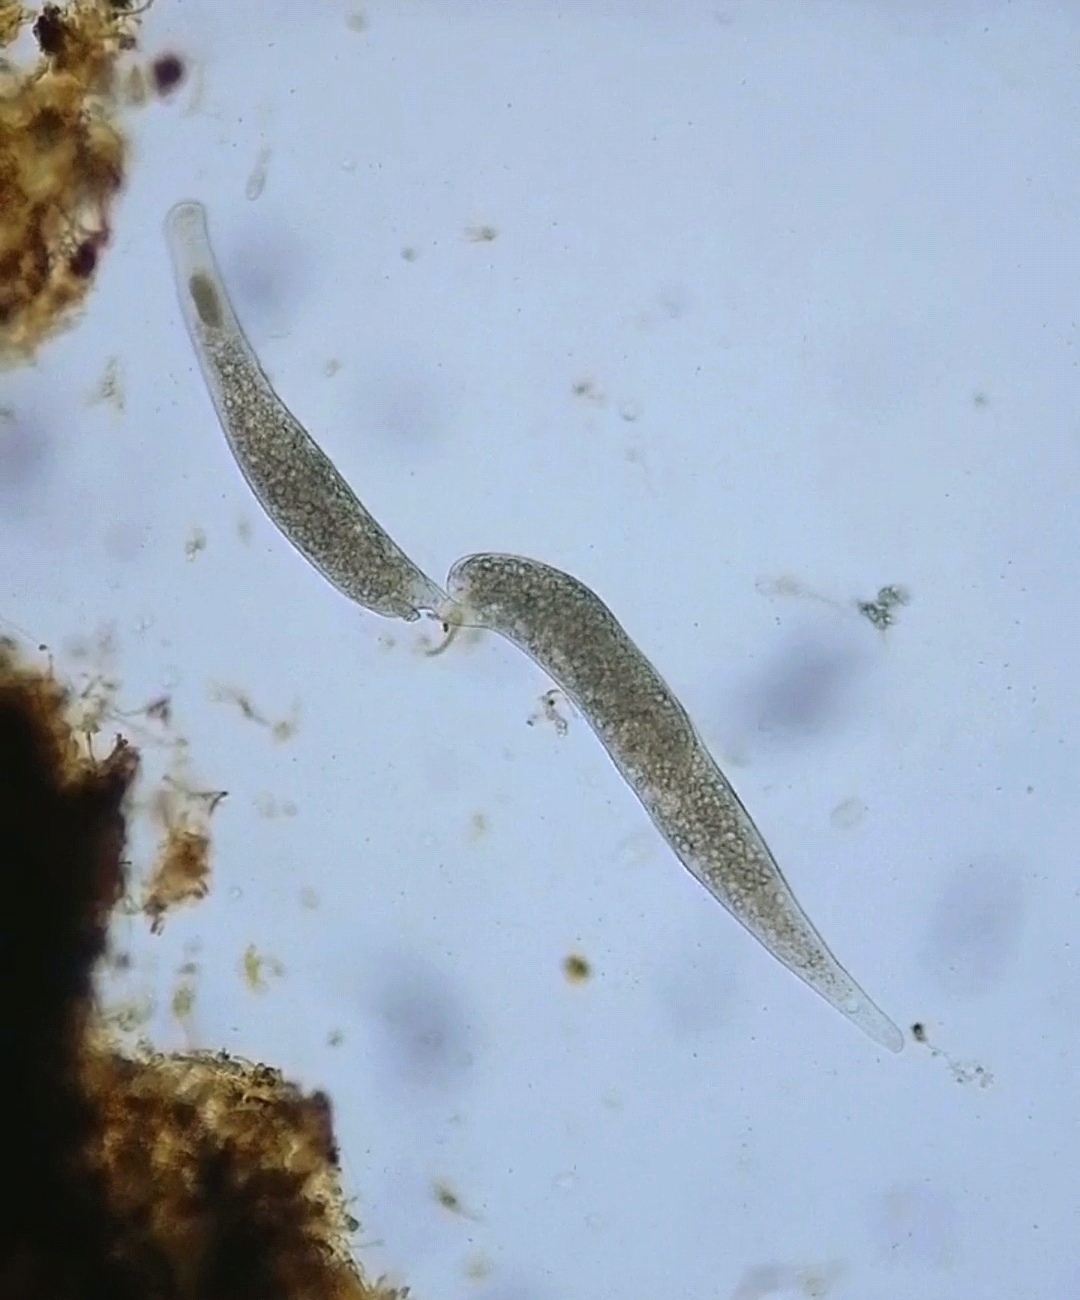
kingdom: Chromista
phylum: Ciliophora
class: Gymnostomatea
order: Spathidiida
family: Homalozoidae
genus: Homalozoon
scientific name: Homalozoon vermiculare
